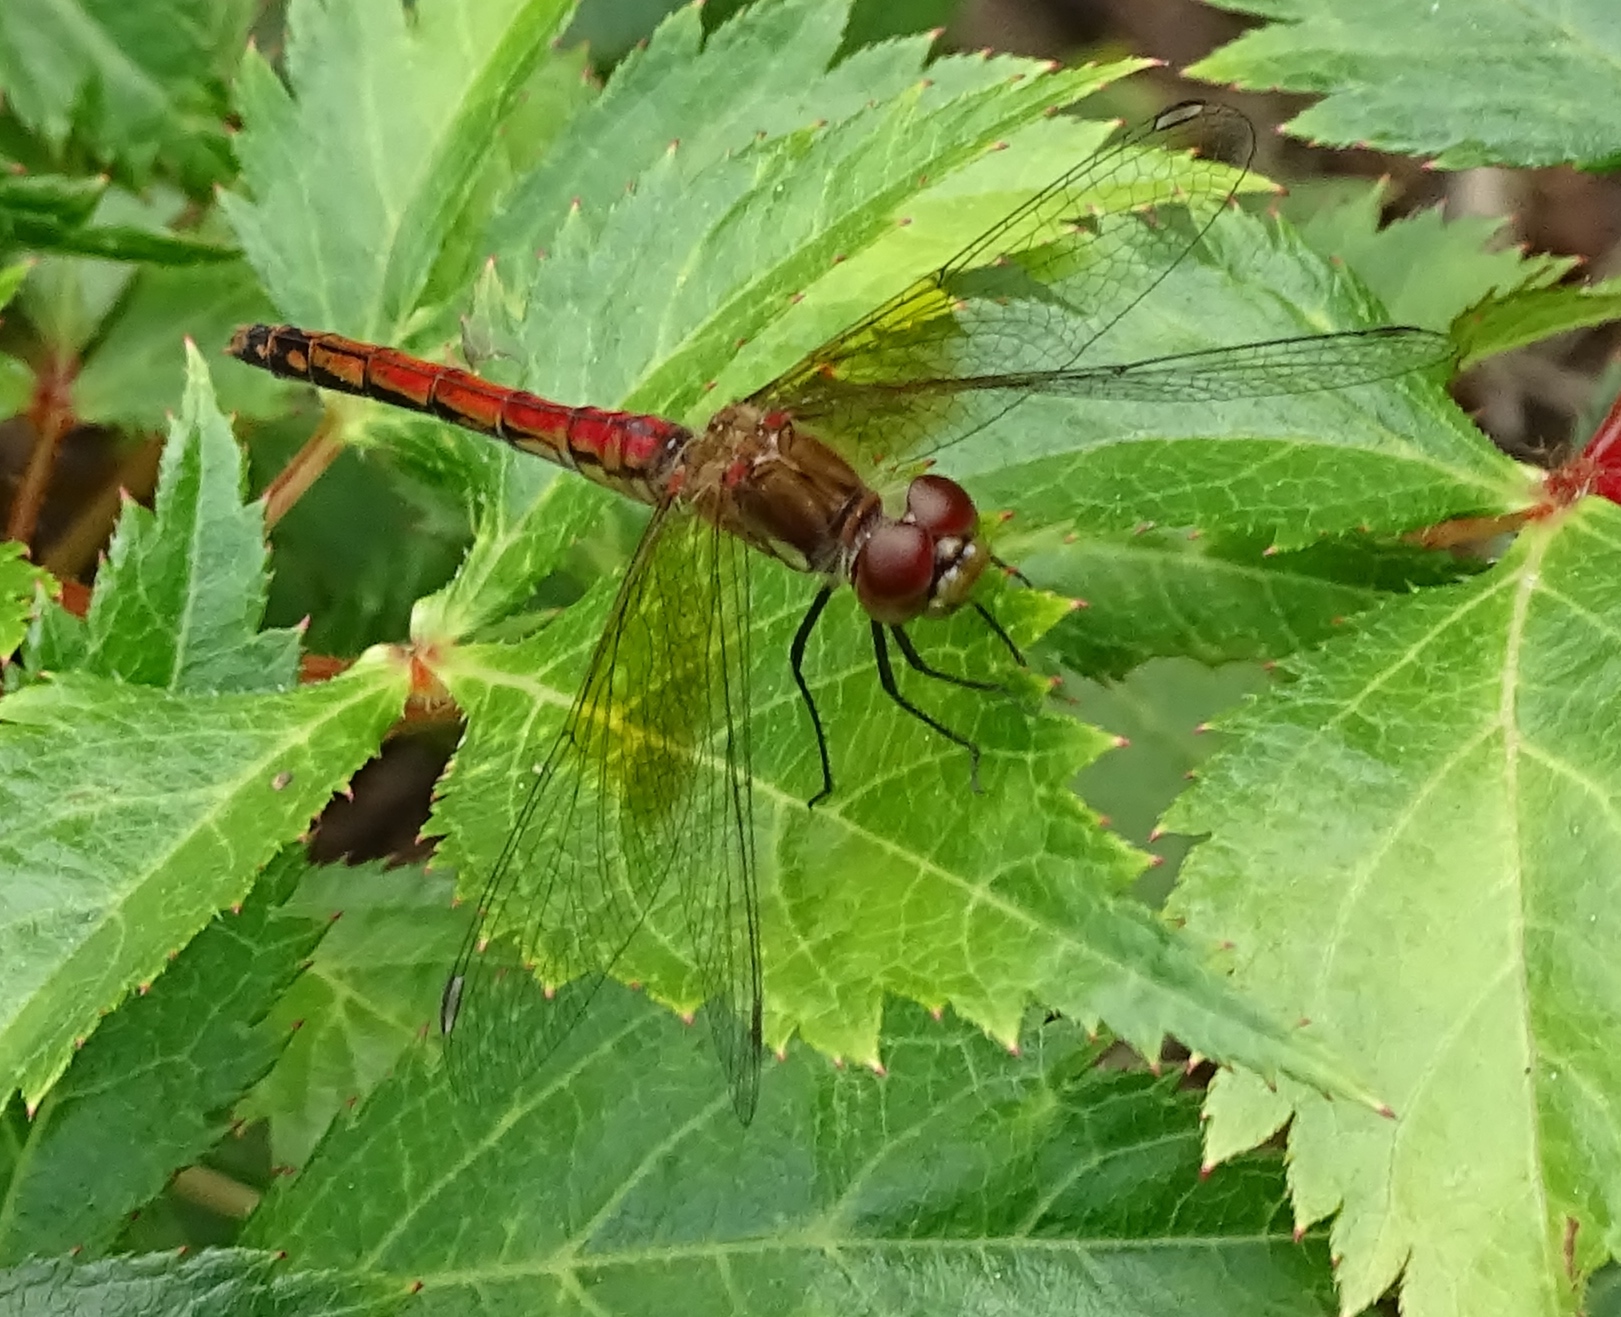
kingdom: Animalia
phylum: Arthropoda
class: Insecta
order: Odonata
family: Libellulidae
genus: Sympetrum
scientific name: Sympetrum semicinctum
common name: Band-winged meadowhawk
